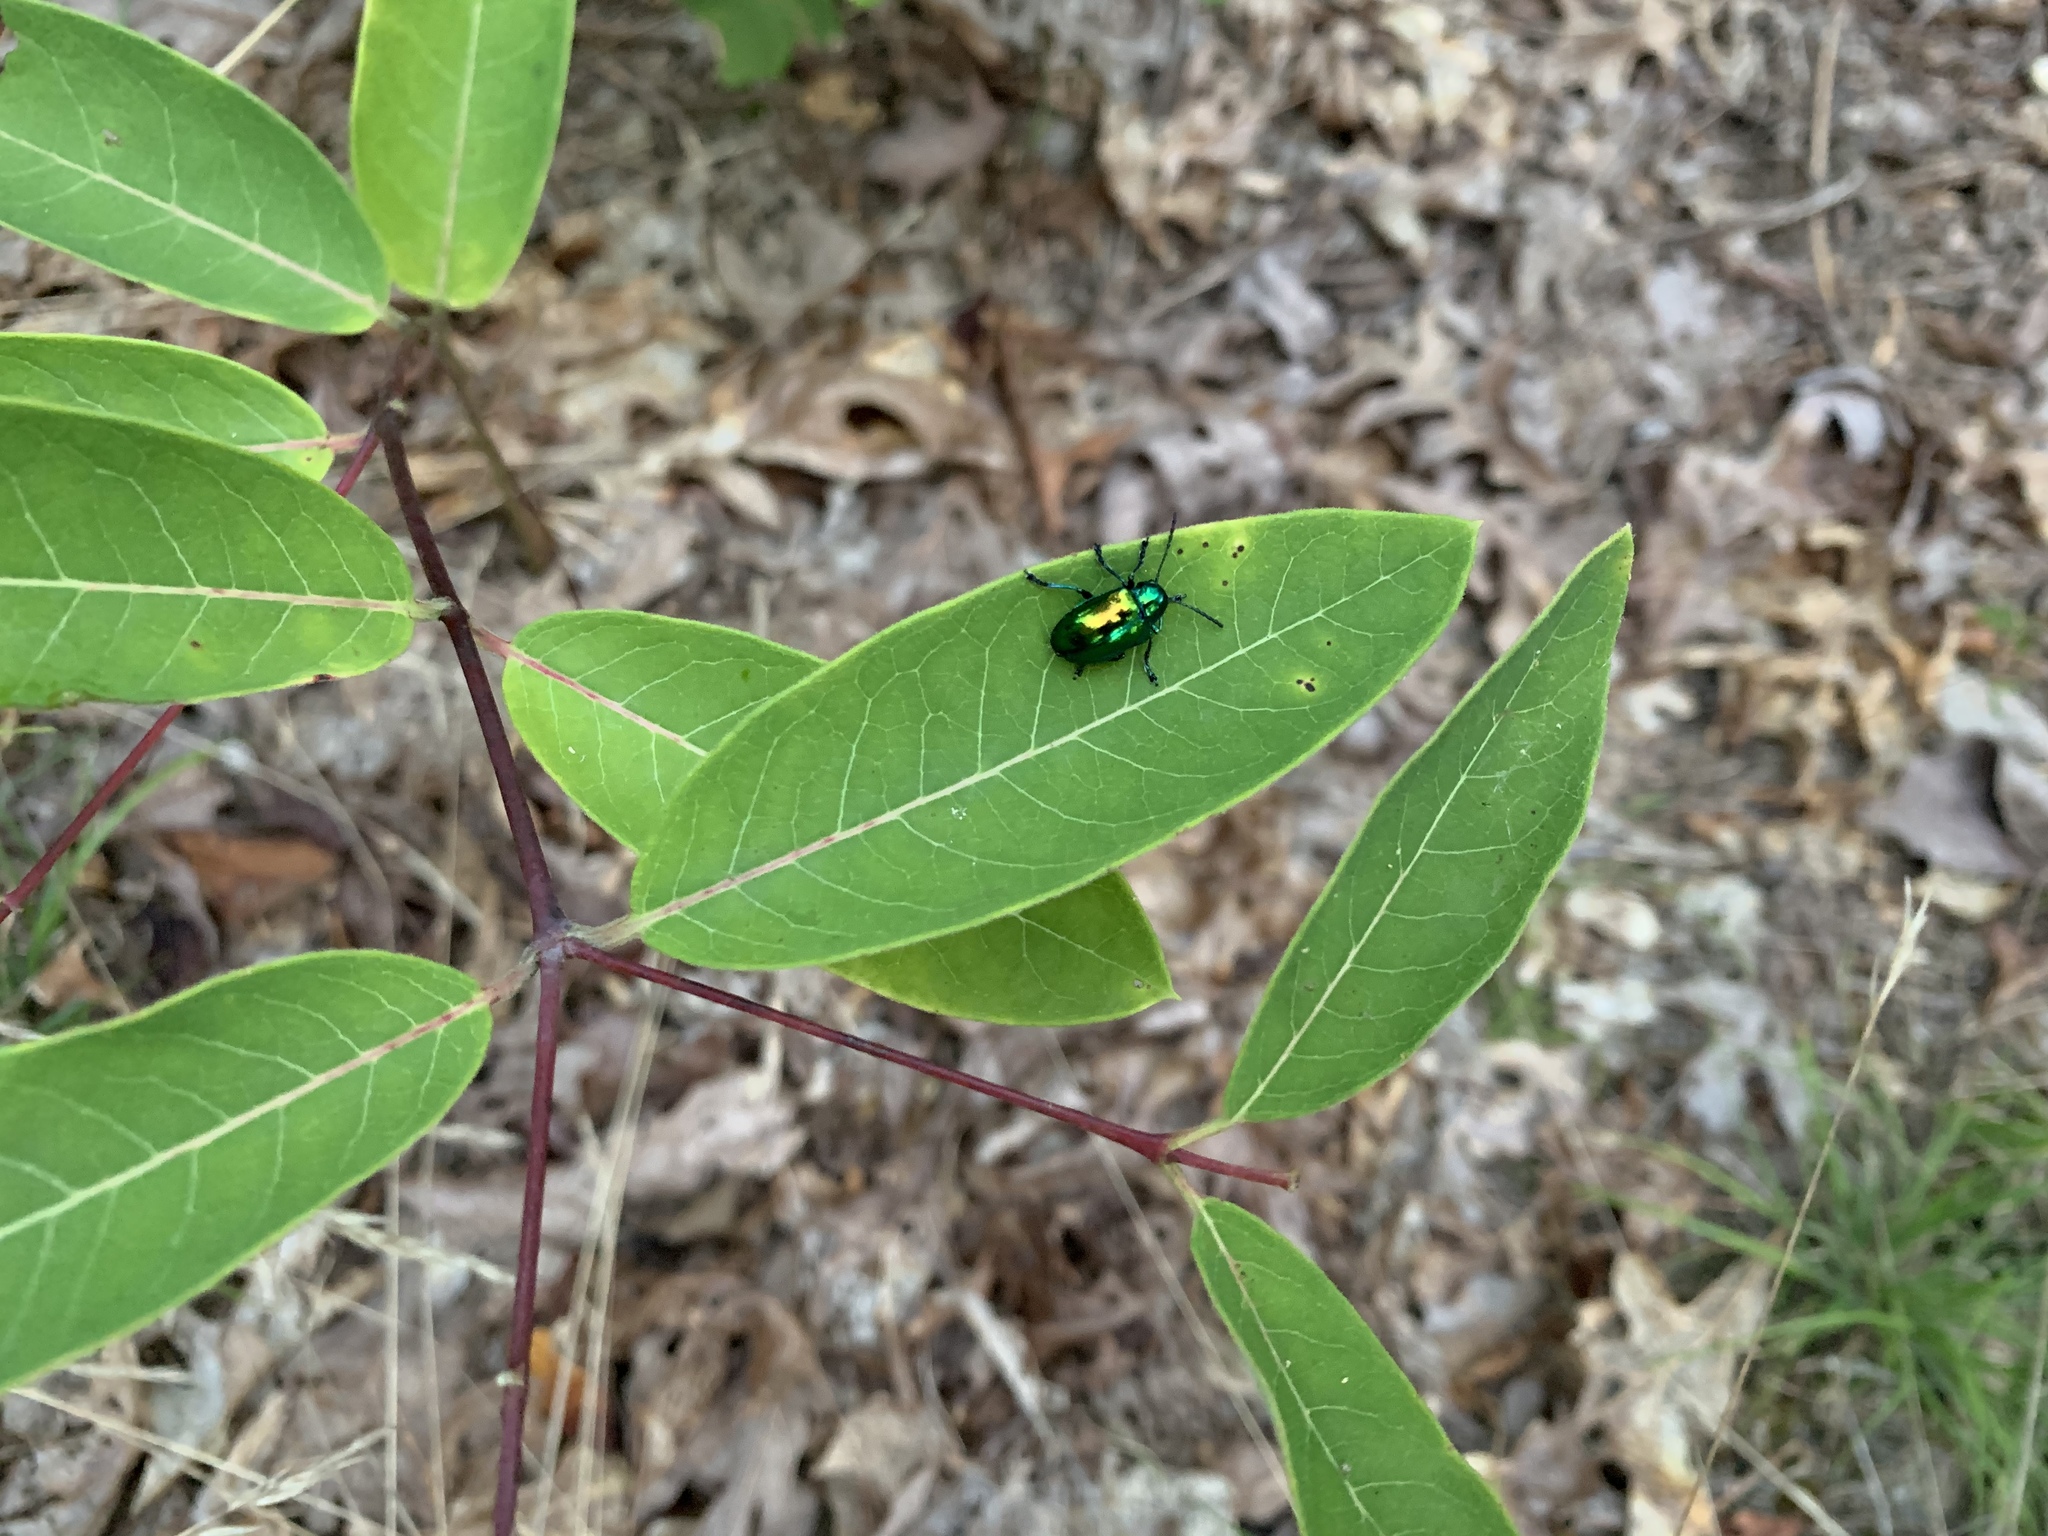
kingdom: Animalia
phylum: Arthropoda
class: Insecta
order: Coleoptera
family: Chrysomelidae
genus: Chrysochus
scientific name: Chrysochus auratus
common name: Dogbane leaf beetle
